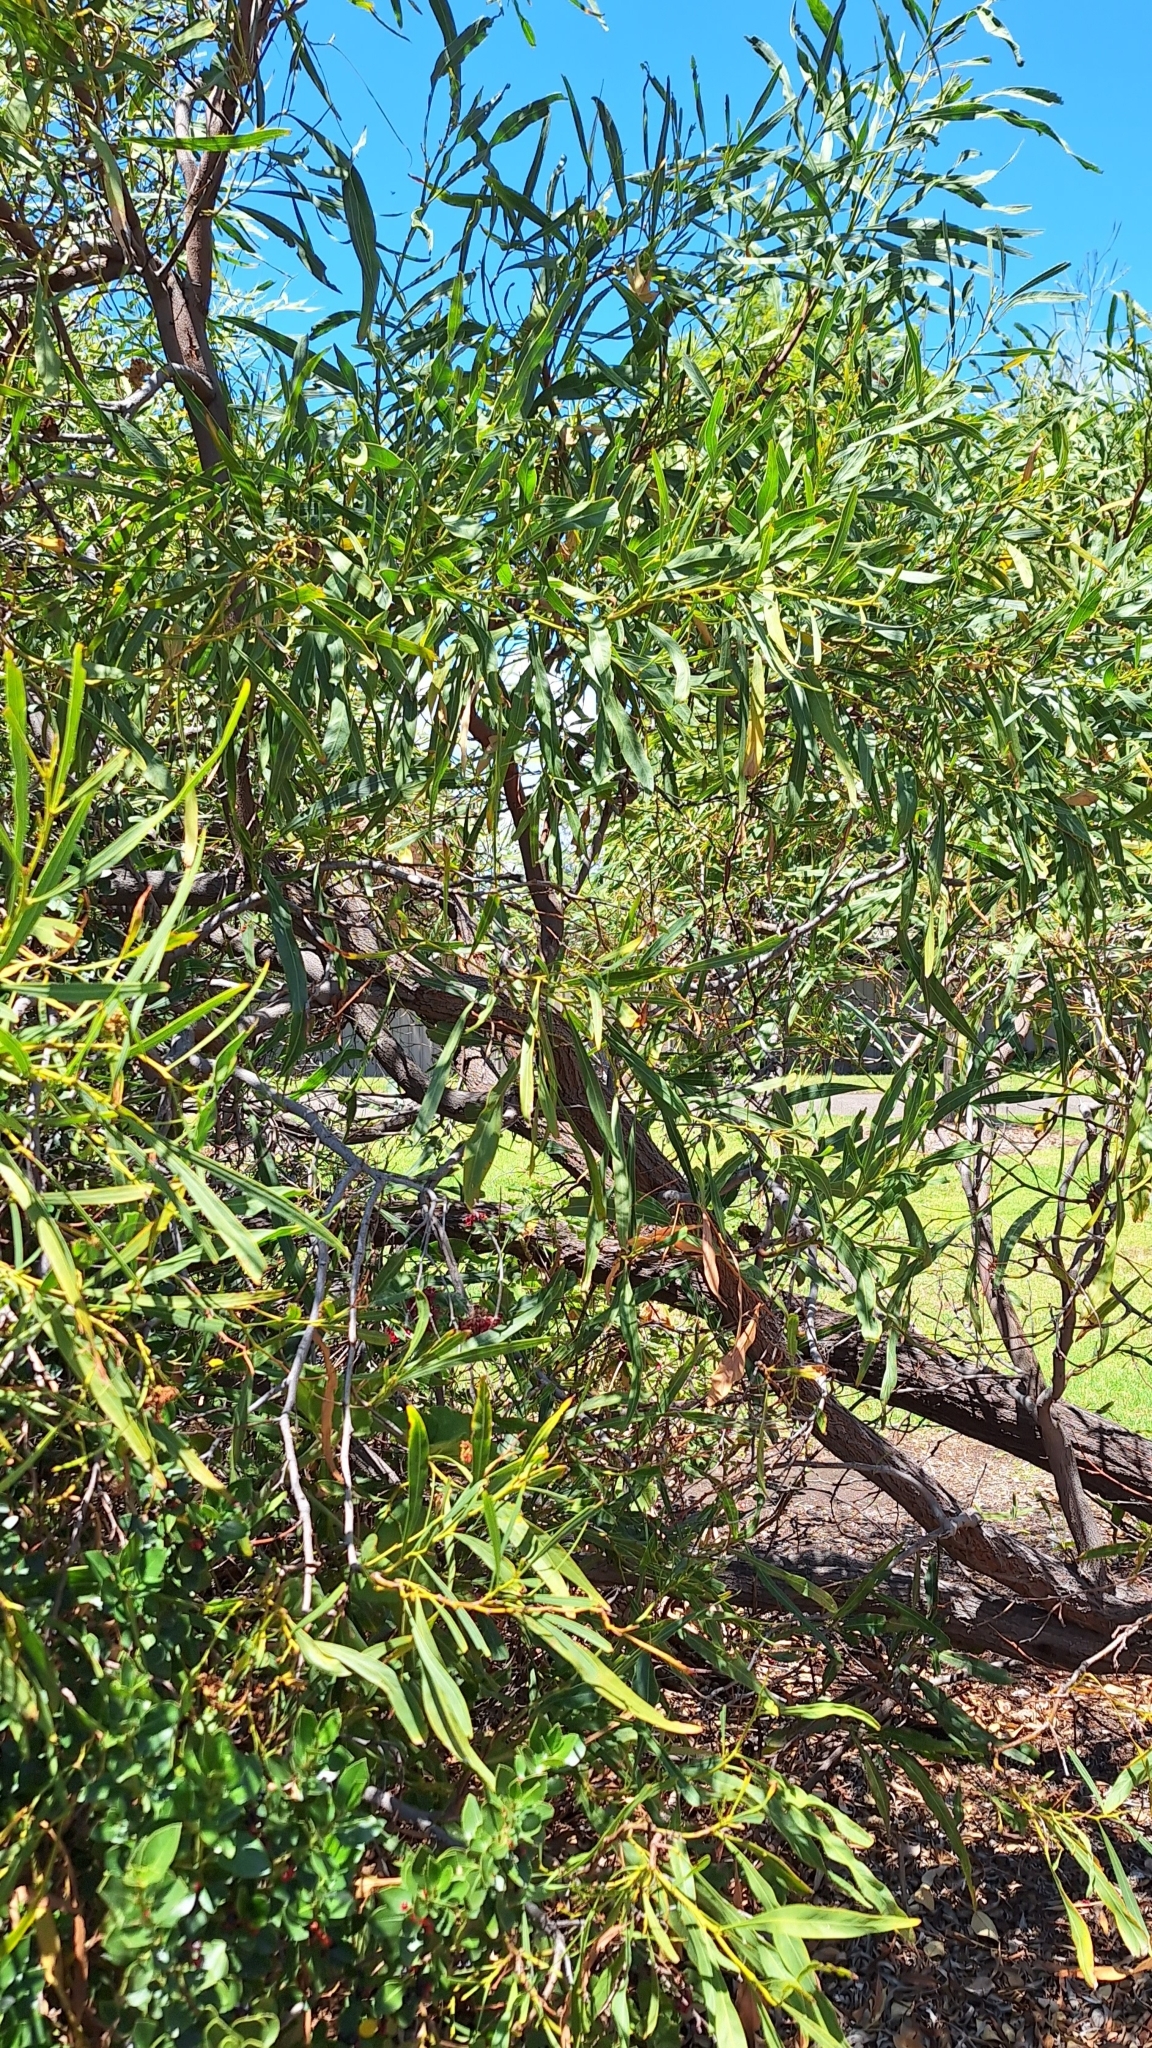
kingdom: Plantae
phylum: Tracheophyta
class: Magnoliopsida
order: Fabales
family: Fabaceae
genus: Acacia
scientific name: Acacia saligna
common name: Orange wattle
